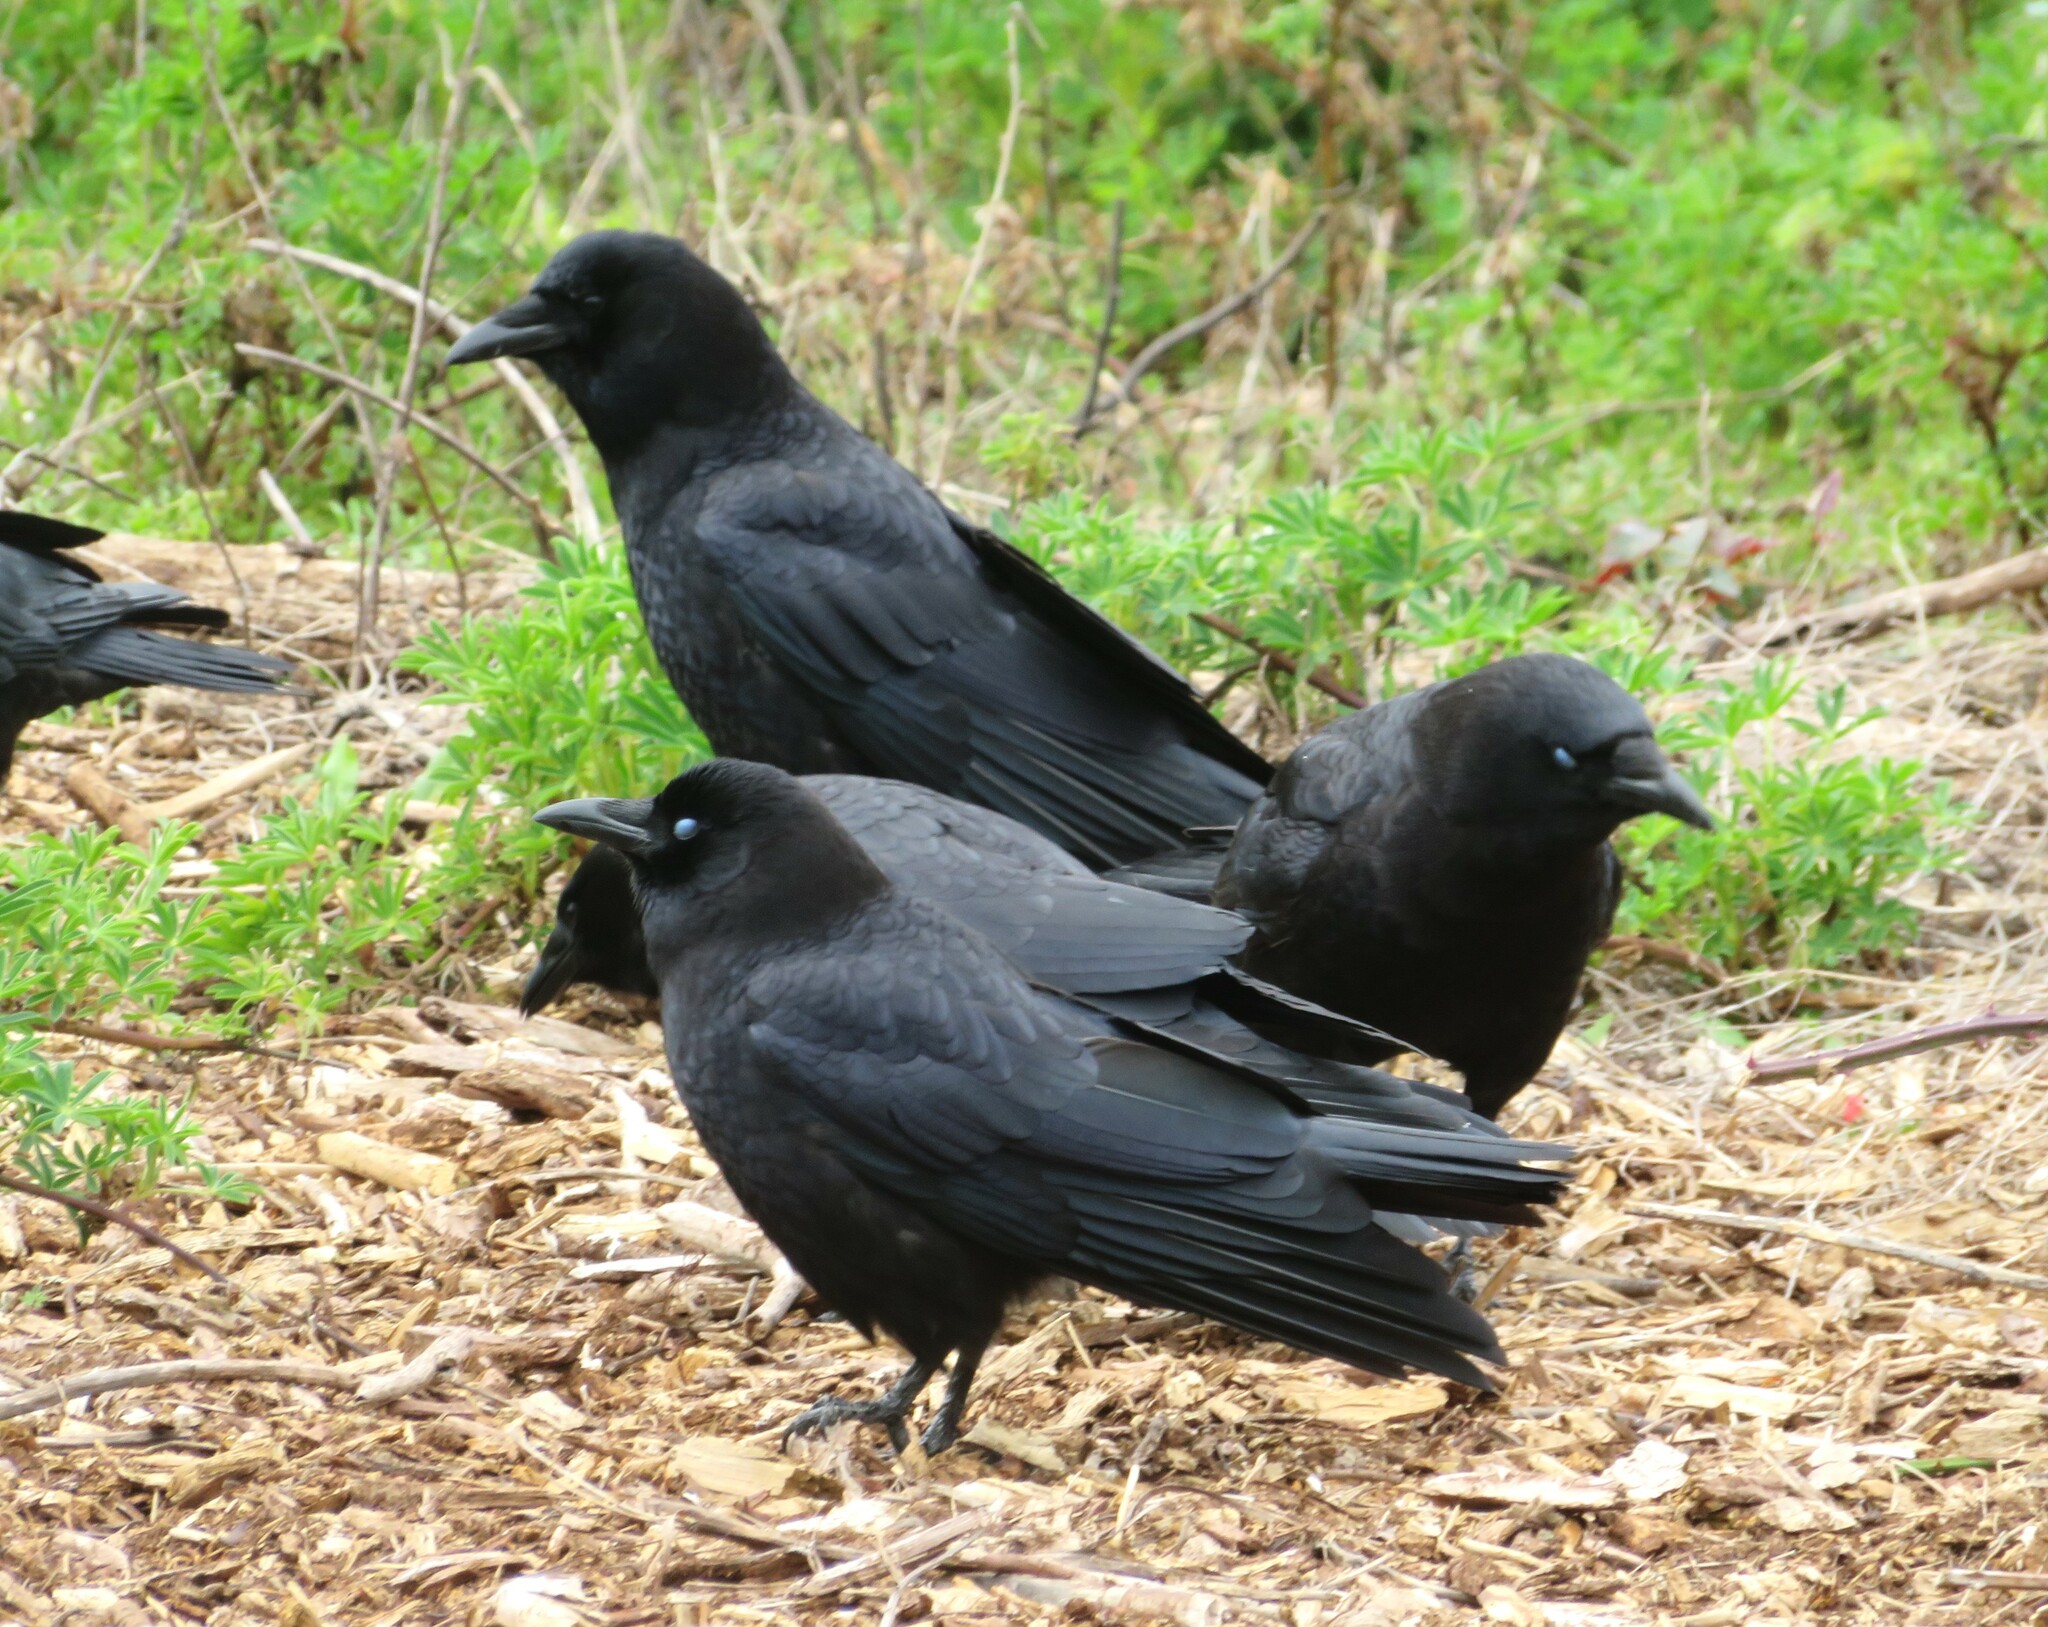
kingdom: Animalia
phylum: Chordata
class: Aves
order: Passeriformes
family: Corvidae
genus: Corvus
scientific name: Corvus brachyrhynchos
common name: American crow
